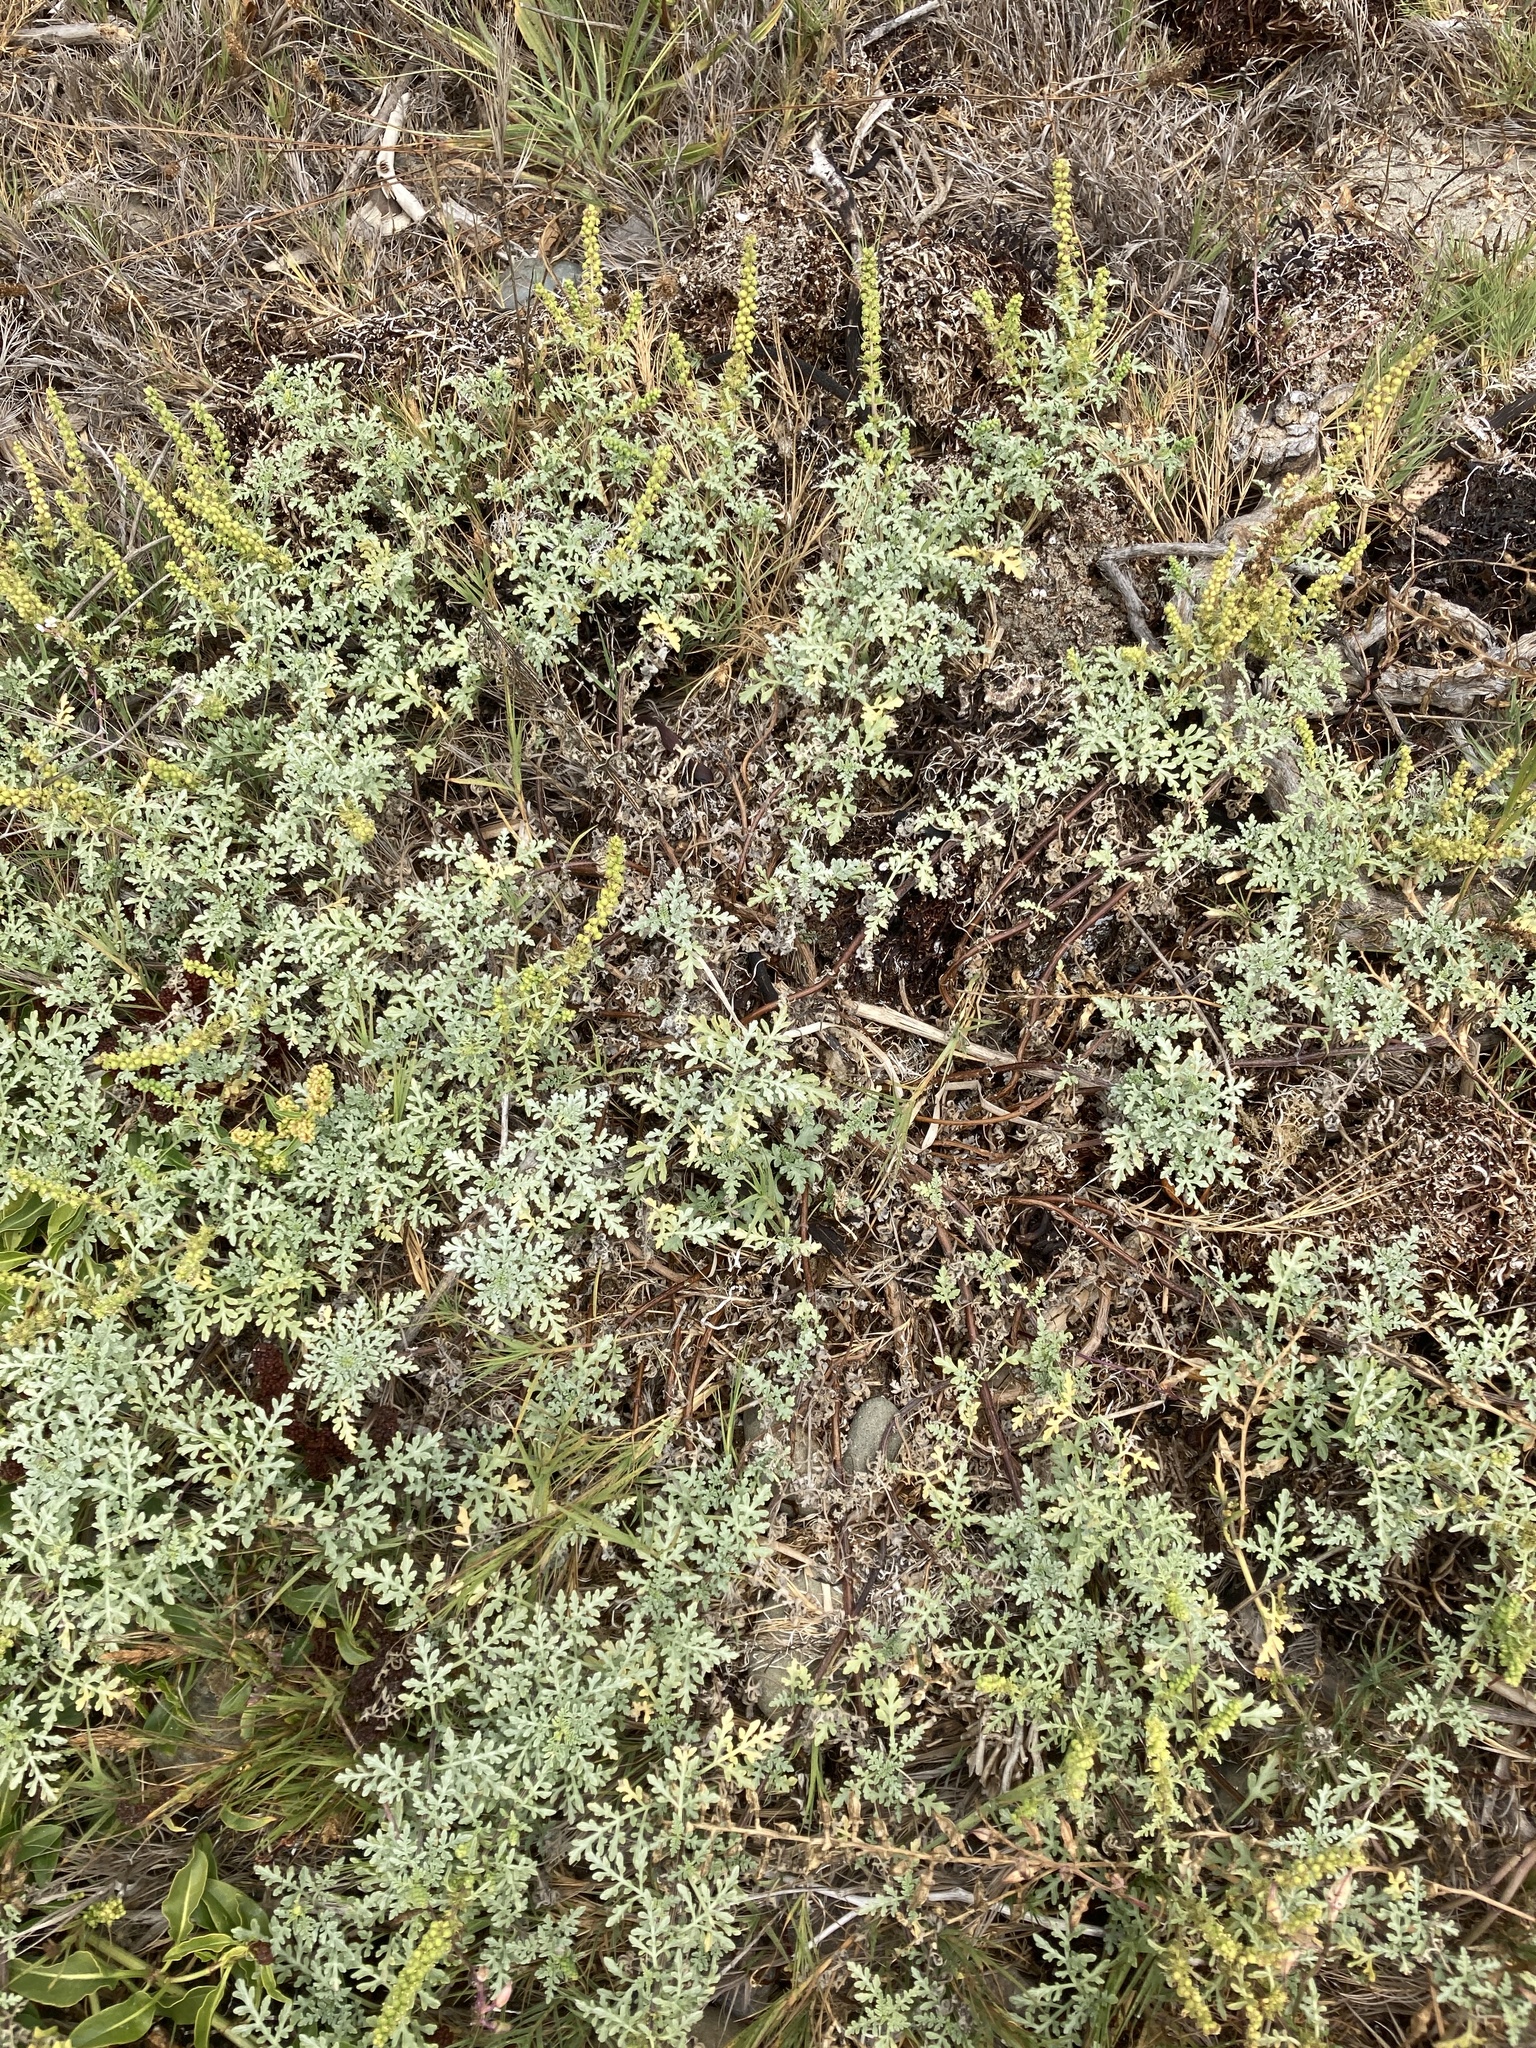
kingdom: Plantae
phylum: Tracheophyta
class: Magnoliopsida
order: Asterales
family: Asteraceae
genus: Ambrosia
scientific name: Ambrosia chamissonis
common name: Beachbur
